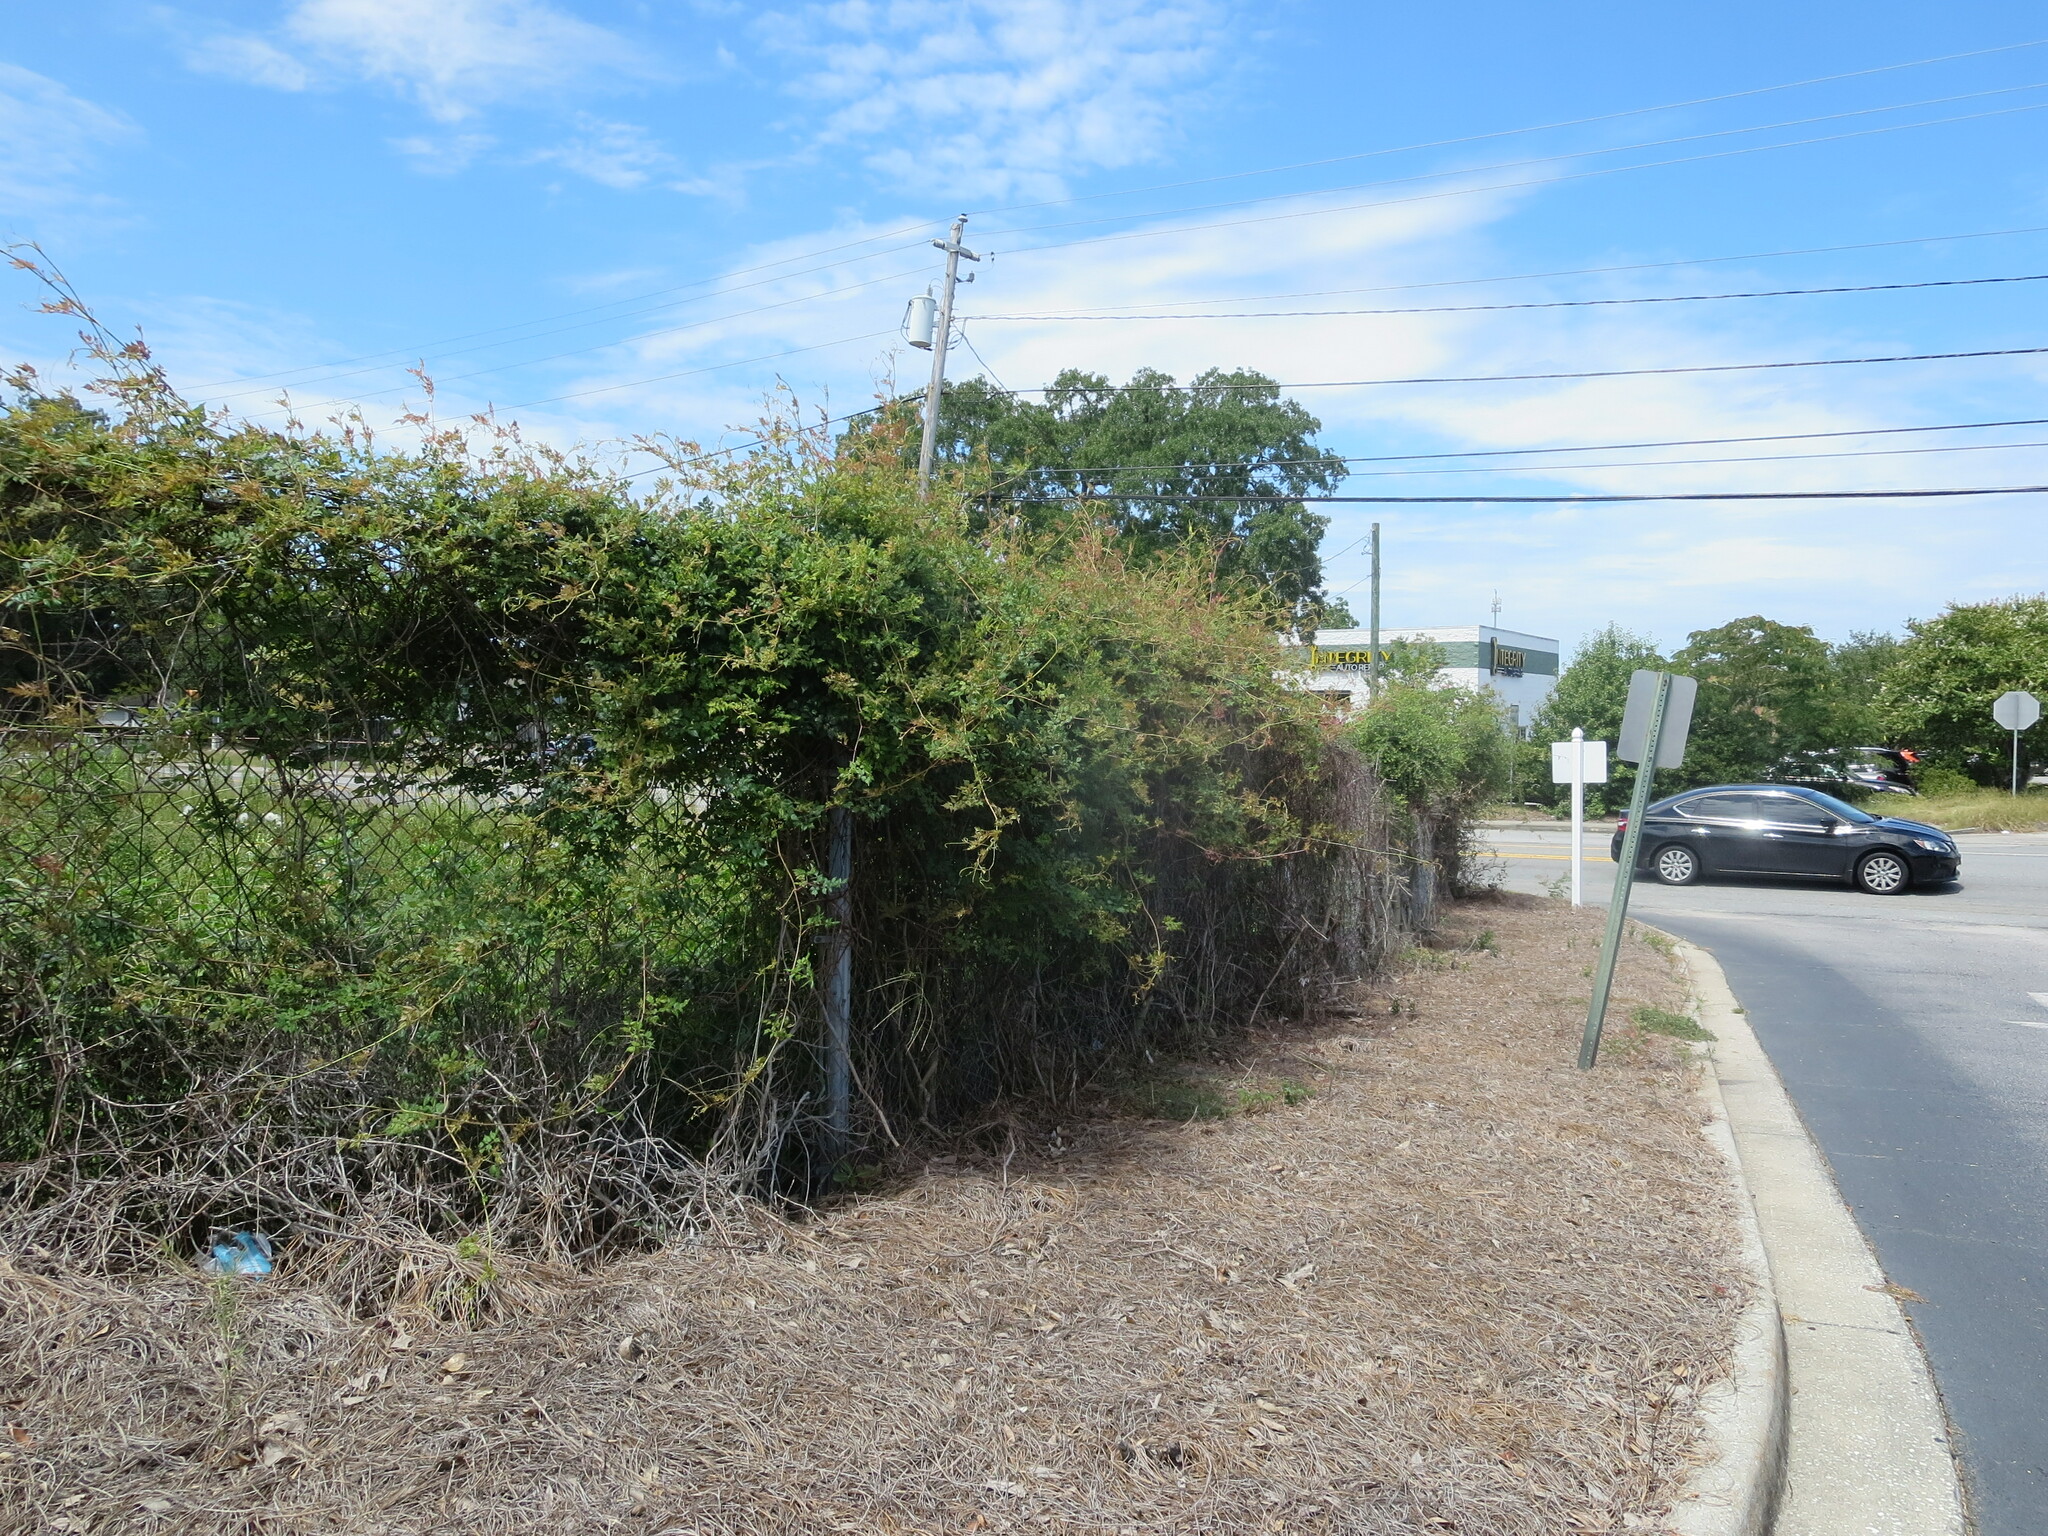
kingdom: Plantae
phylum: Tracheophyta
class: Magnoliopsida
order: Vitales
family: Vitaceae
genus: Nekemias
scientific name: Nekemias arborea
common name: Peppervine
